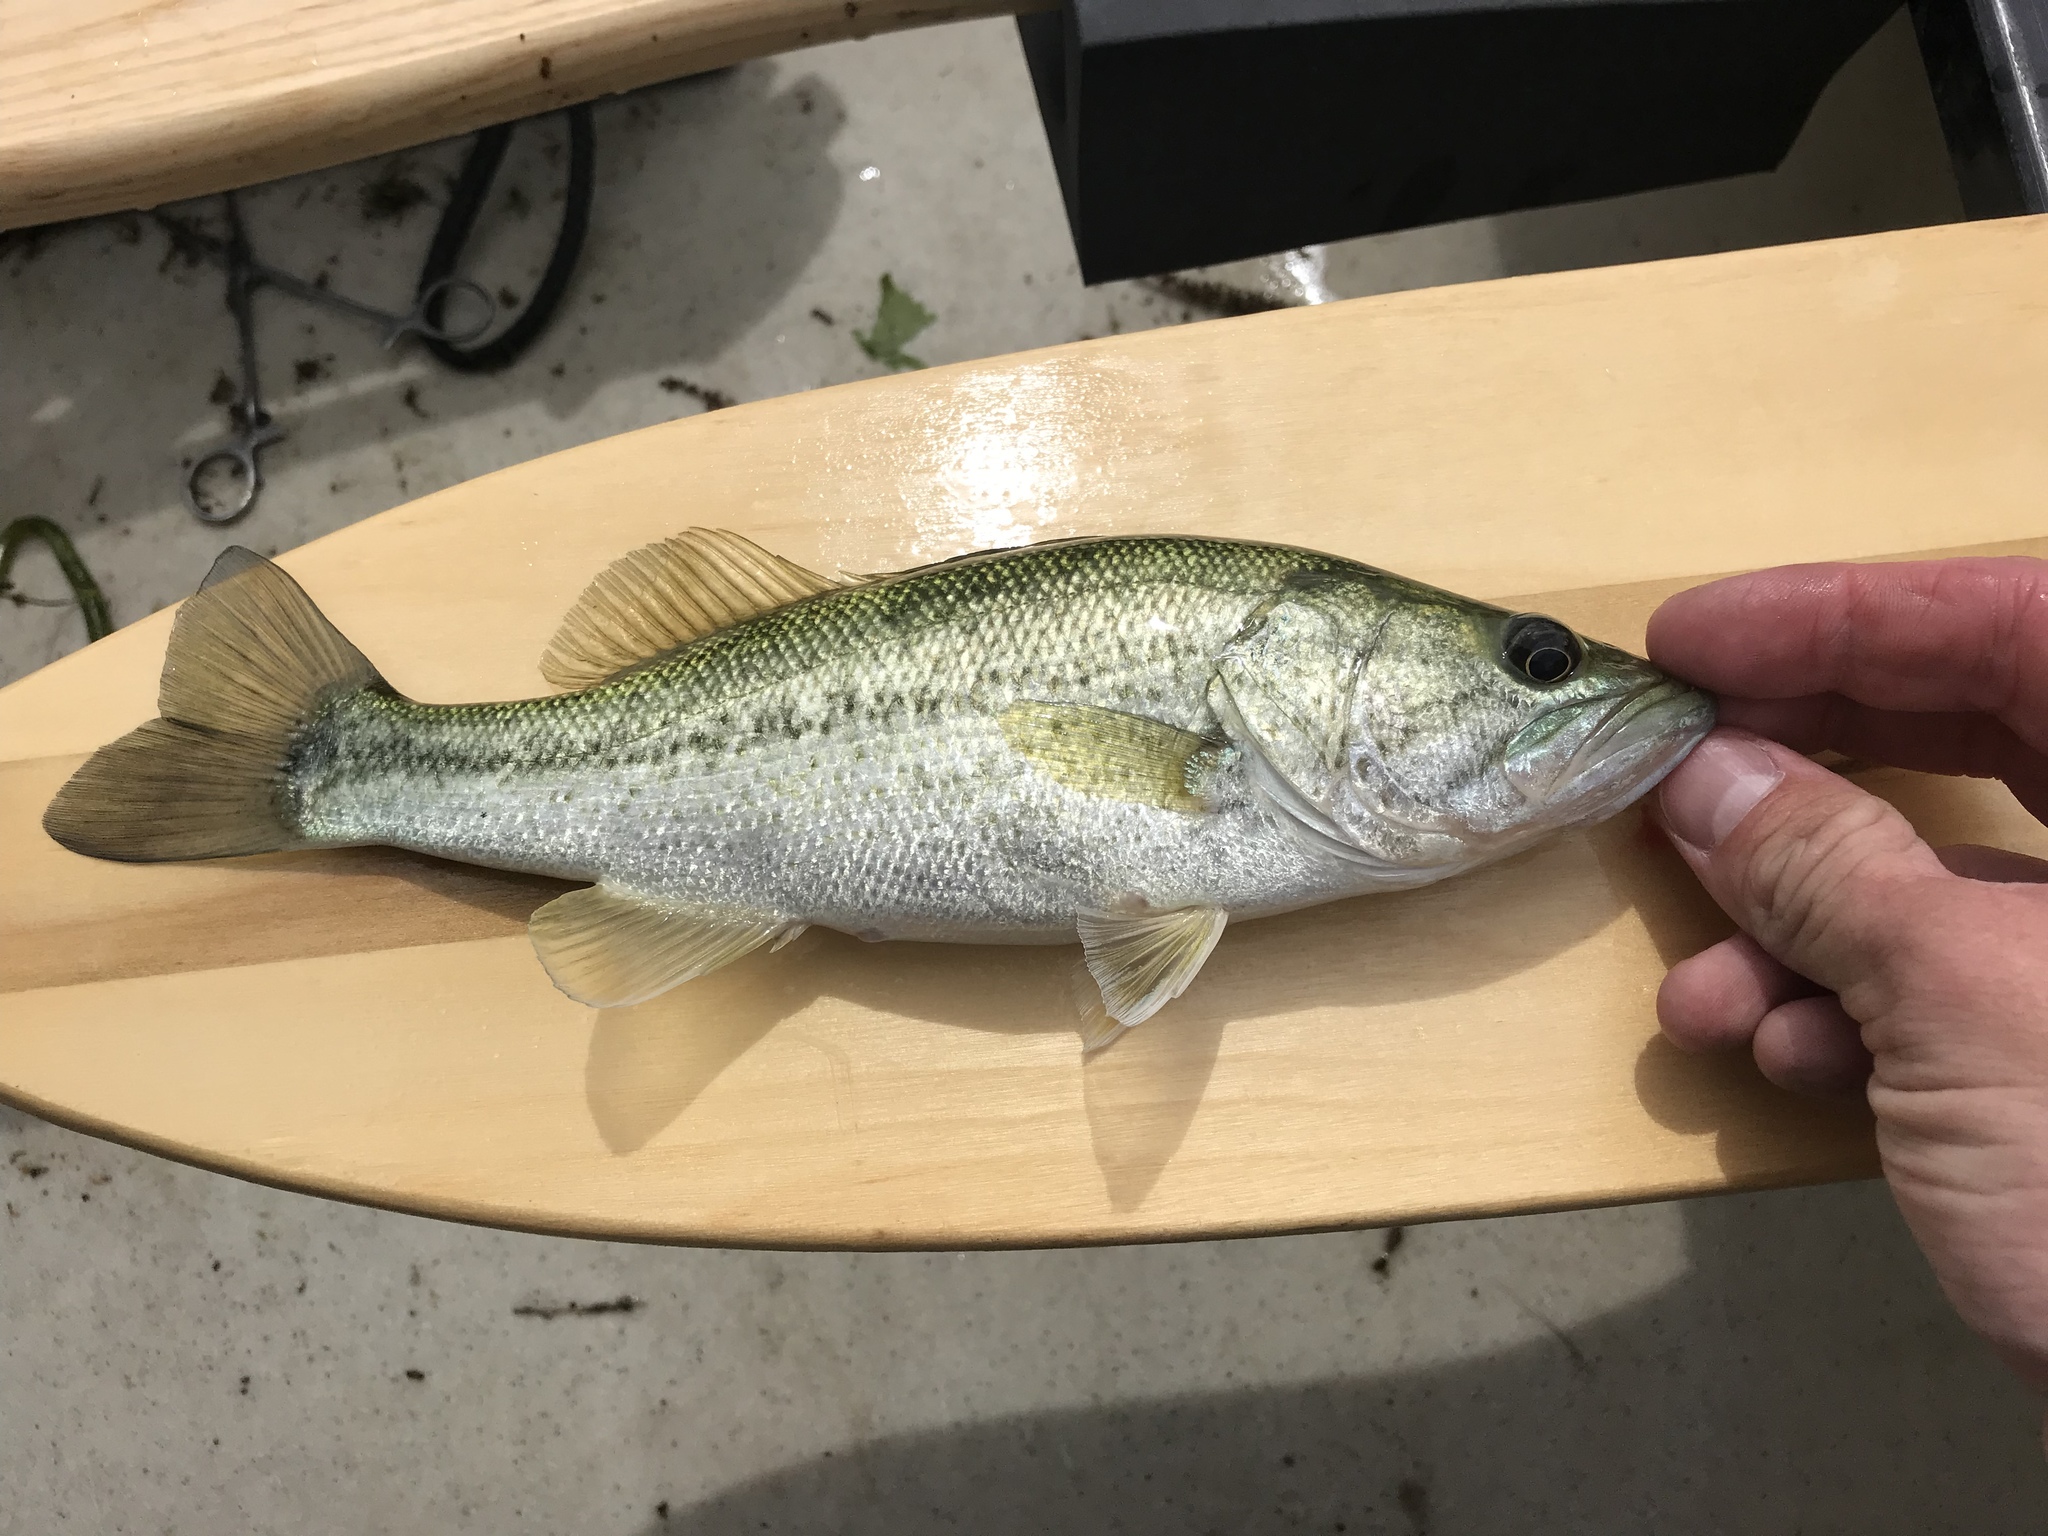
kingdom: Animalia
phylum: Chordata
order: Perciformes
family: Centrarchidae
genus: Micropterus
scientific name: Micropterus
